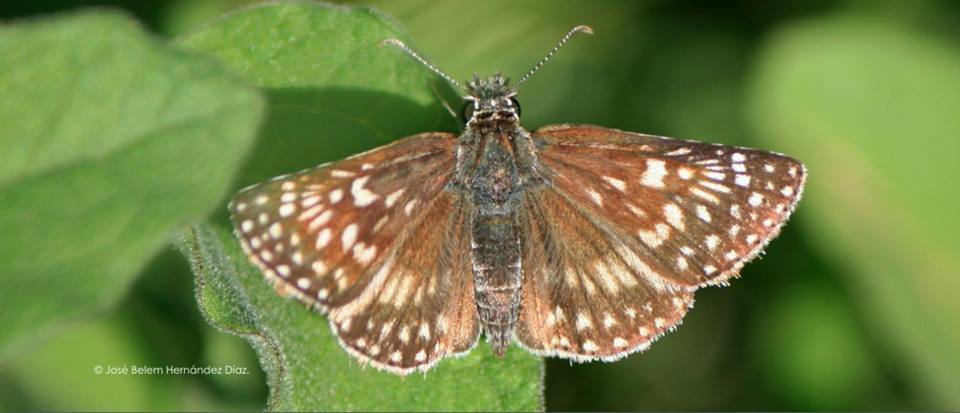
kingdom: Animalia
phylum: Arthropoda
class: Insecta
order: Lepidoptera
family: Hesperiidae
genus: Burnsius
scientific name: Burnsius communis
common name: Common checkered-skipper
